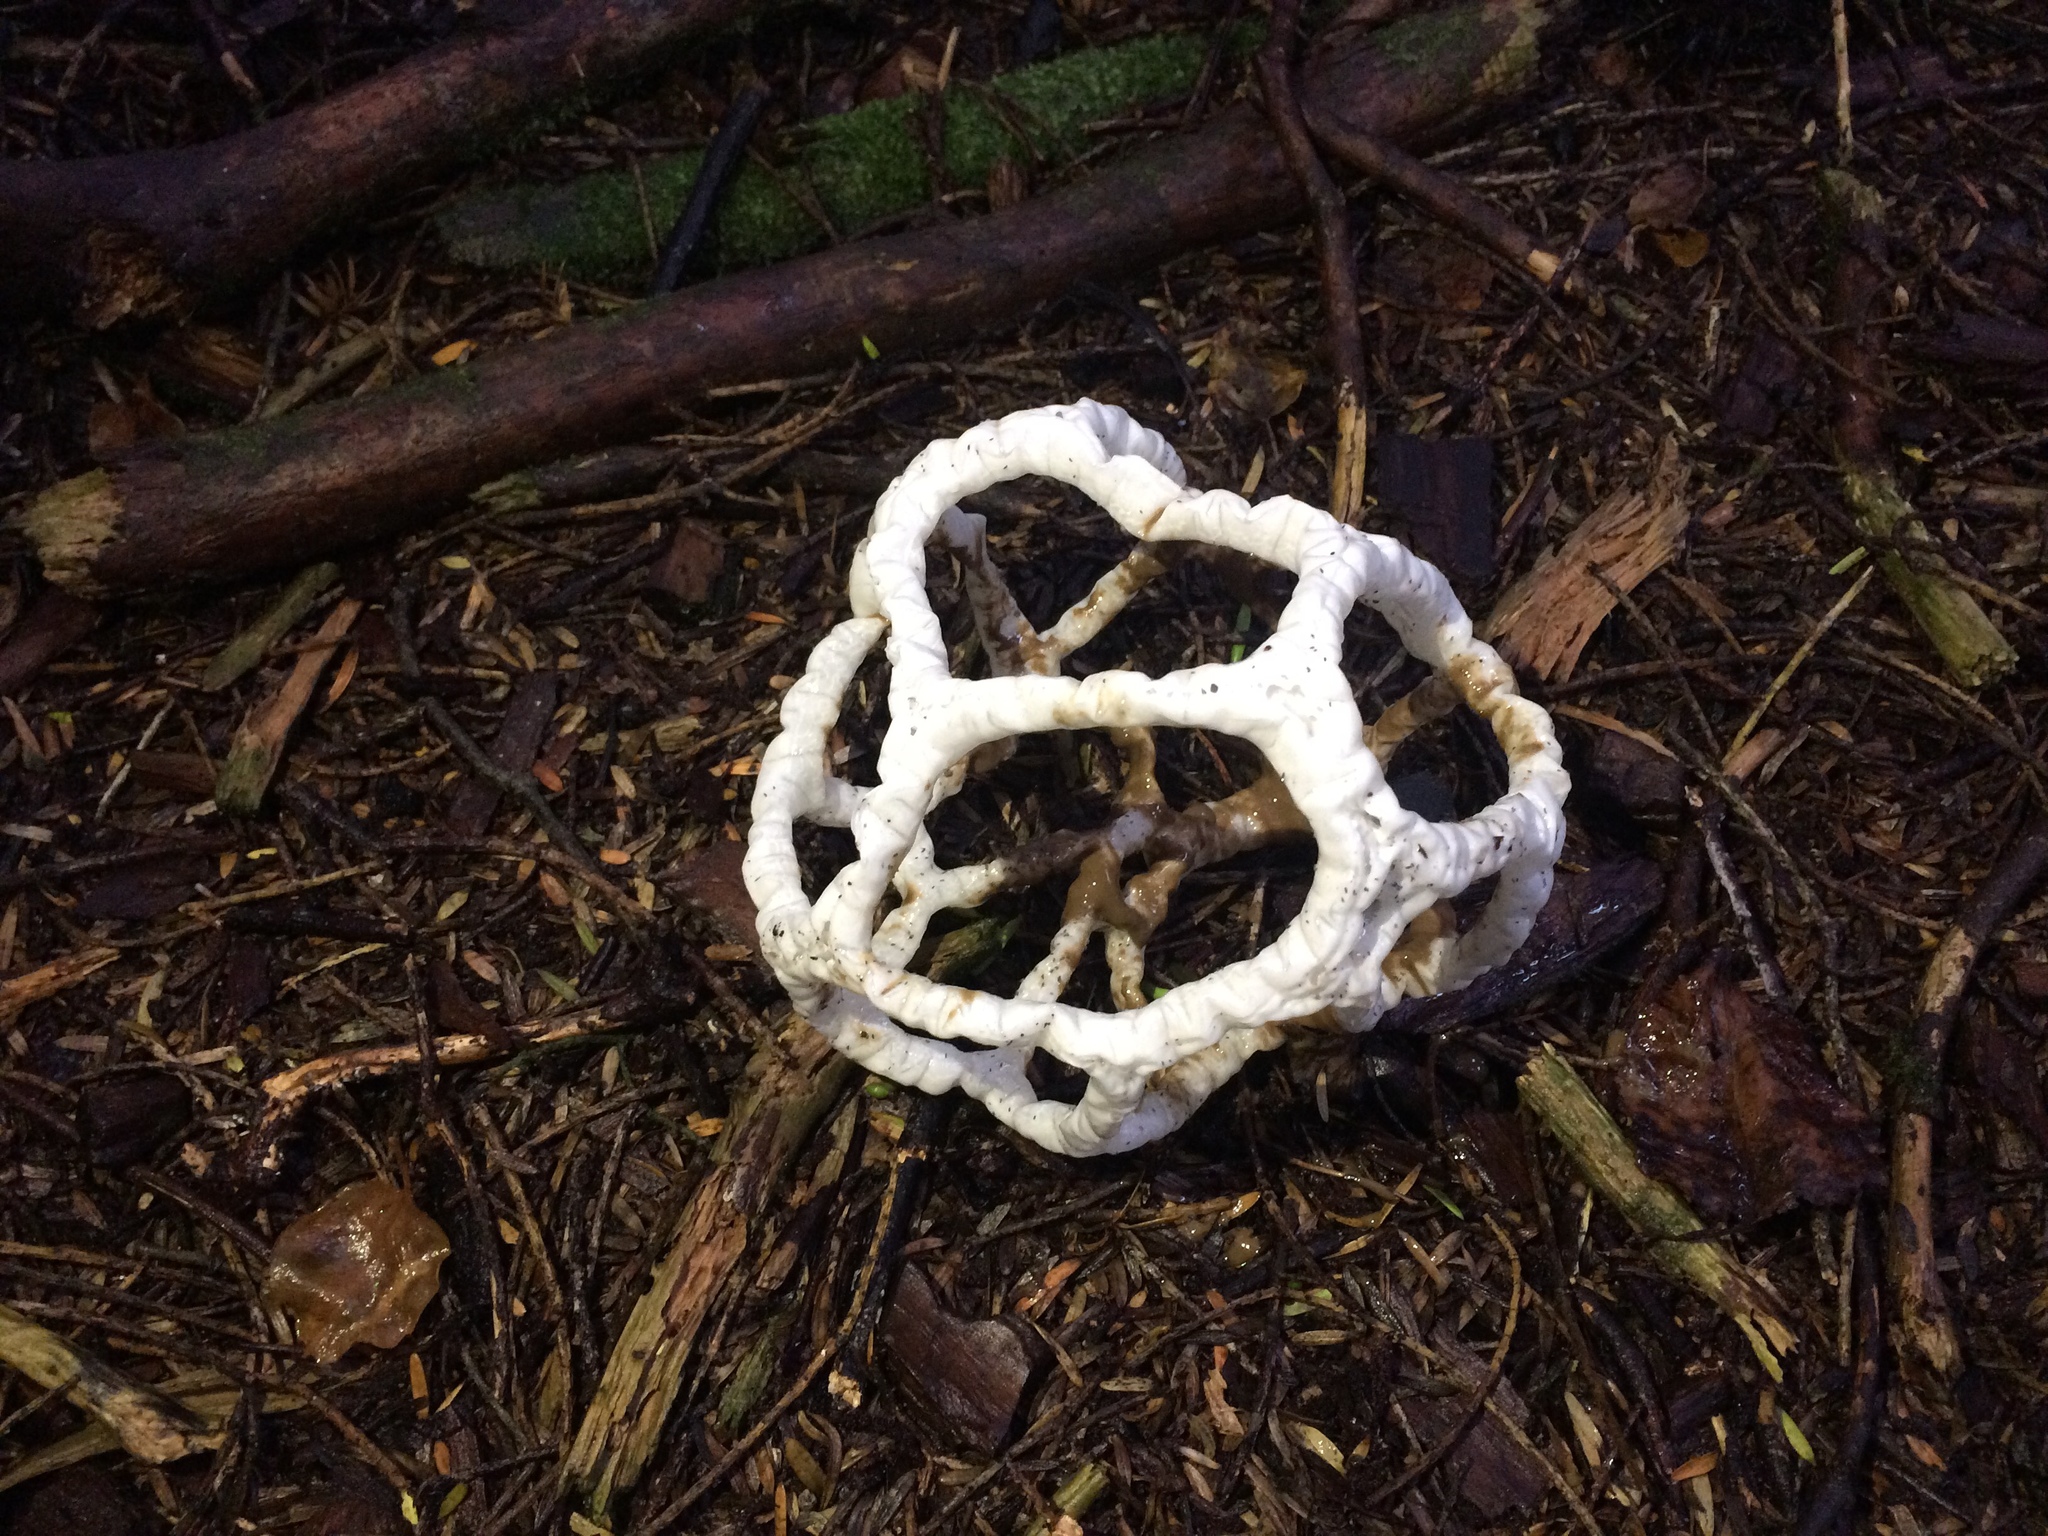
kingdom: Fungi
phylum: Basidiomycota
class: Agaricomycetes
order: Phallales
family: Phallaceae
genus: Ileodictyon
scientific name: Ileodictyon cibarium
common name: Basket fungus
